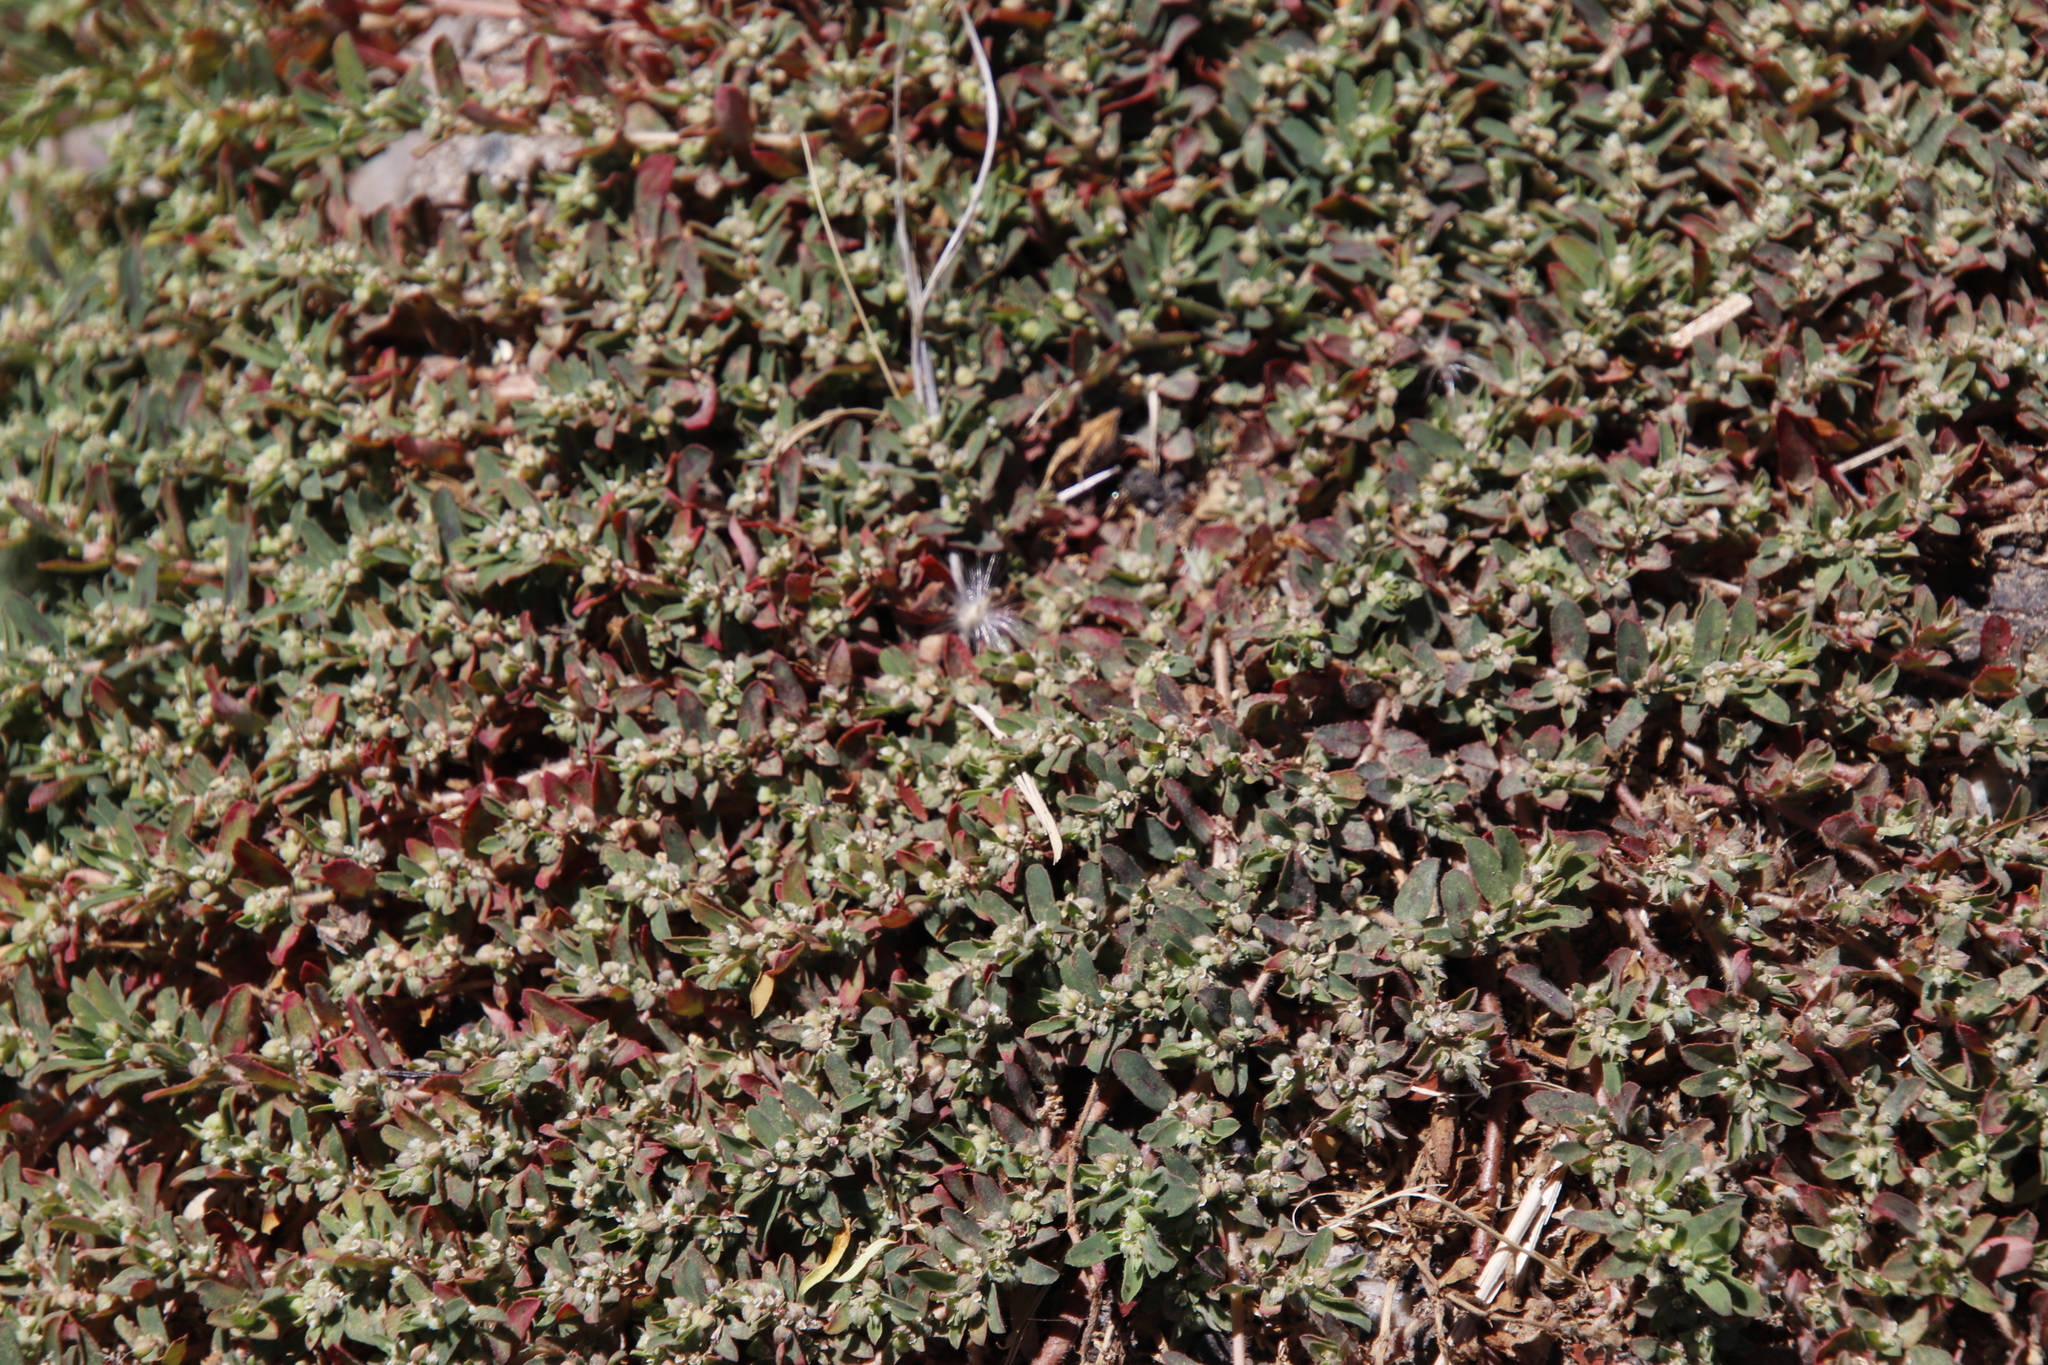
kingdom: Plantae
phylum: Tracheophyta
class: Magnoliopsida
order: Malpighiales
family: Euphorbiaceae
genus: Euphorbia
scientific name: Euphorbia maculata
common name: Spotted spurge
